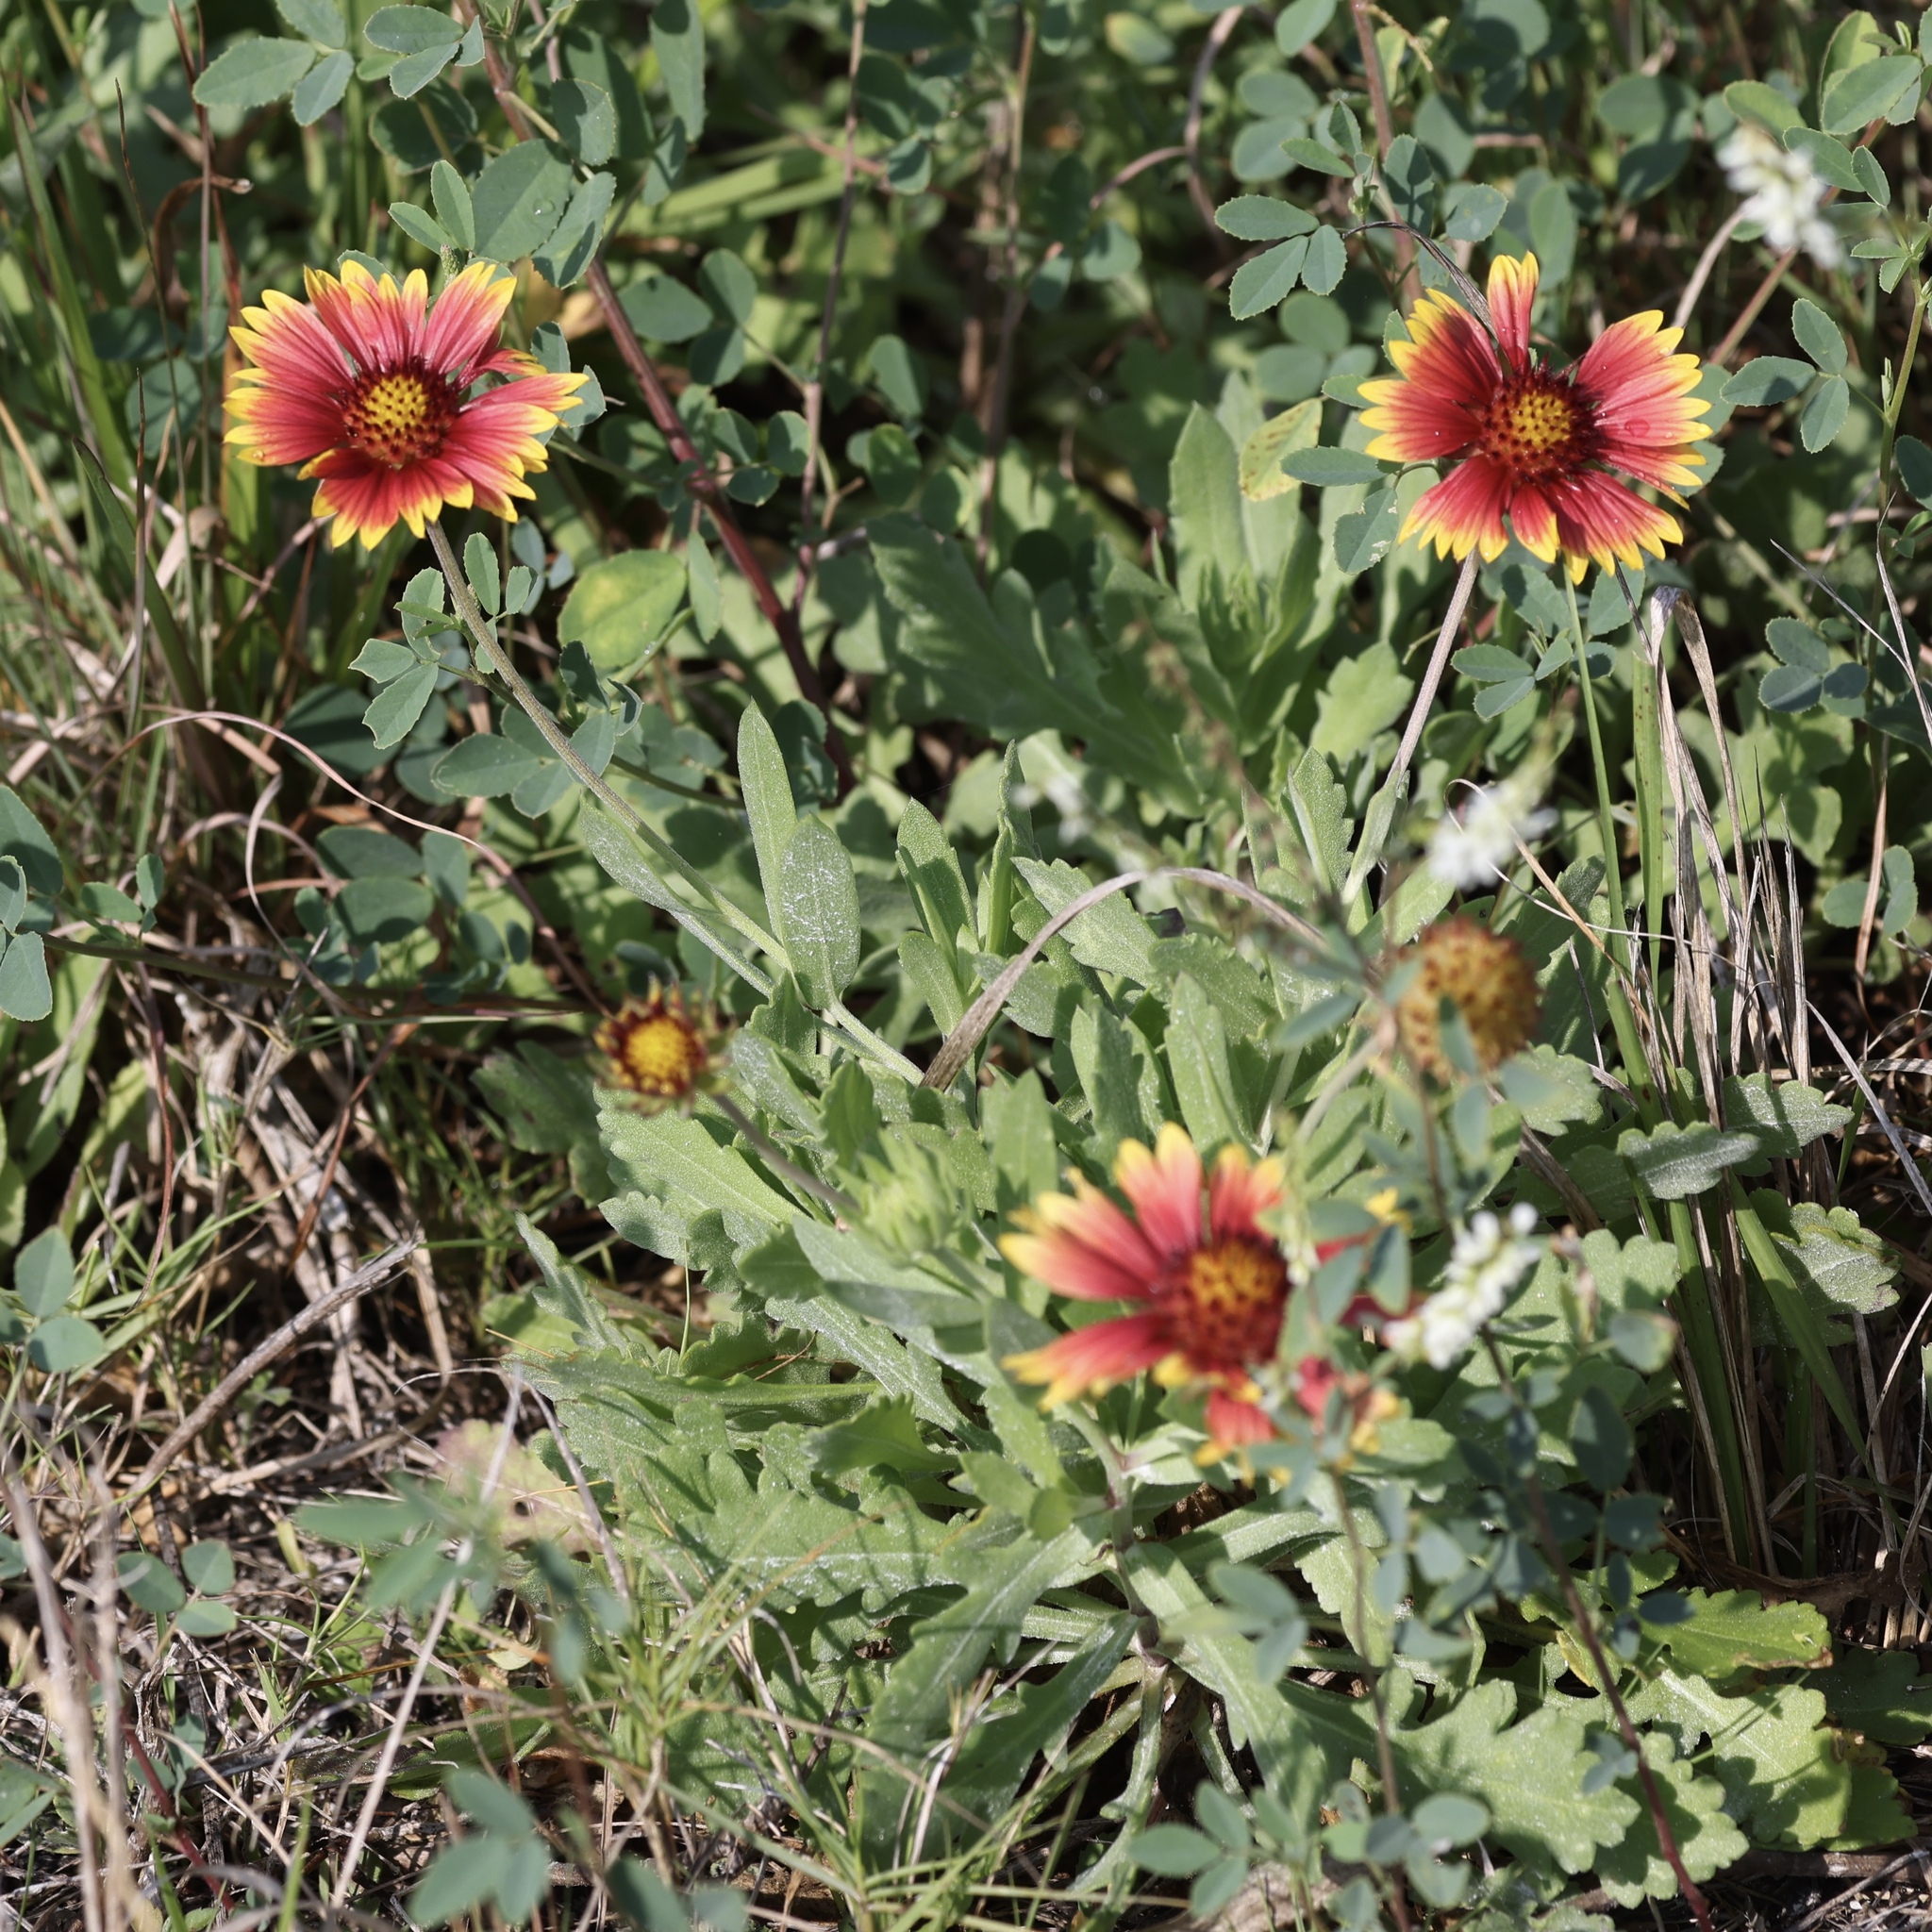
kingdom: Plantae
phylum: Tracheophyta
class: Magnoliopsida
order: Asterales
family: Asteraceae
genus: Gaillardia
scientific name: Gaillardia pulchella
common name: Firewheel
